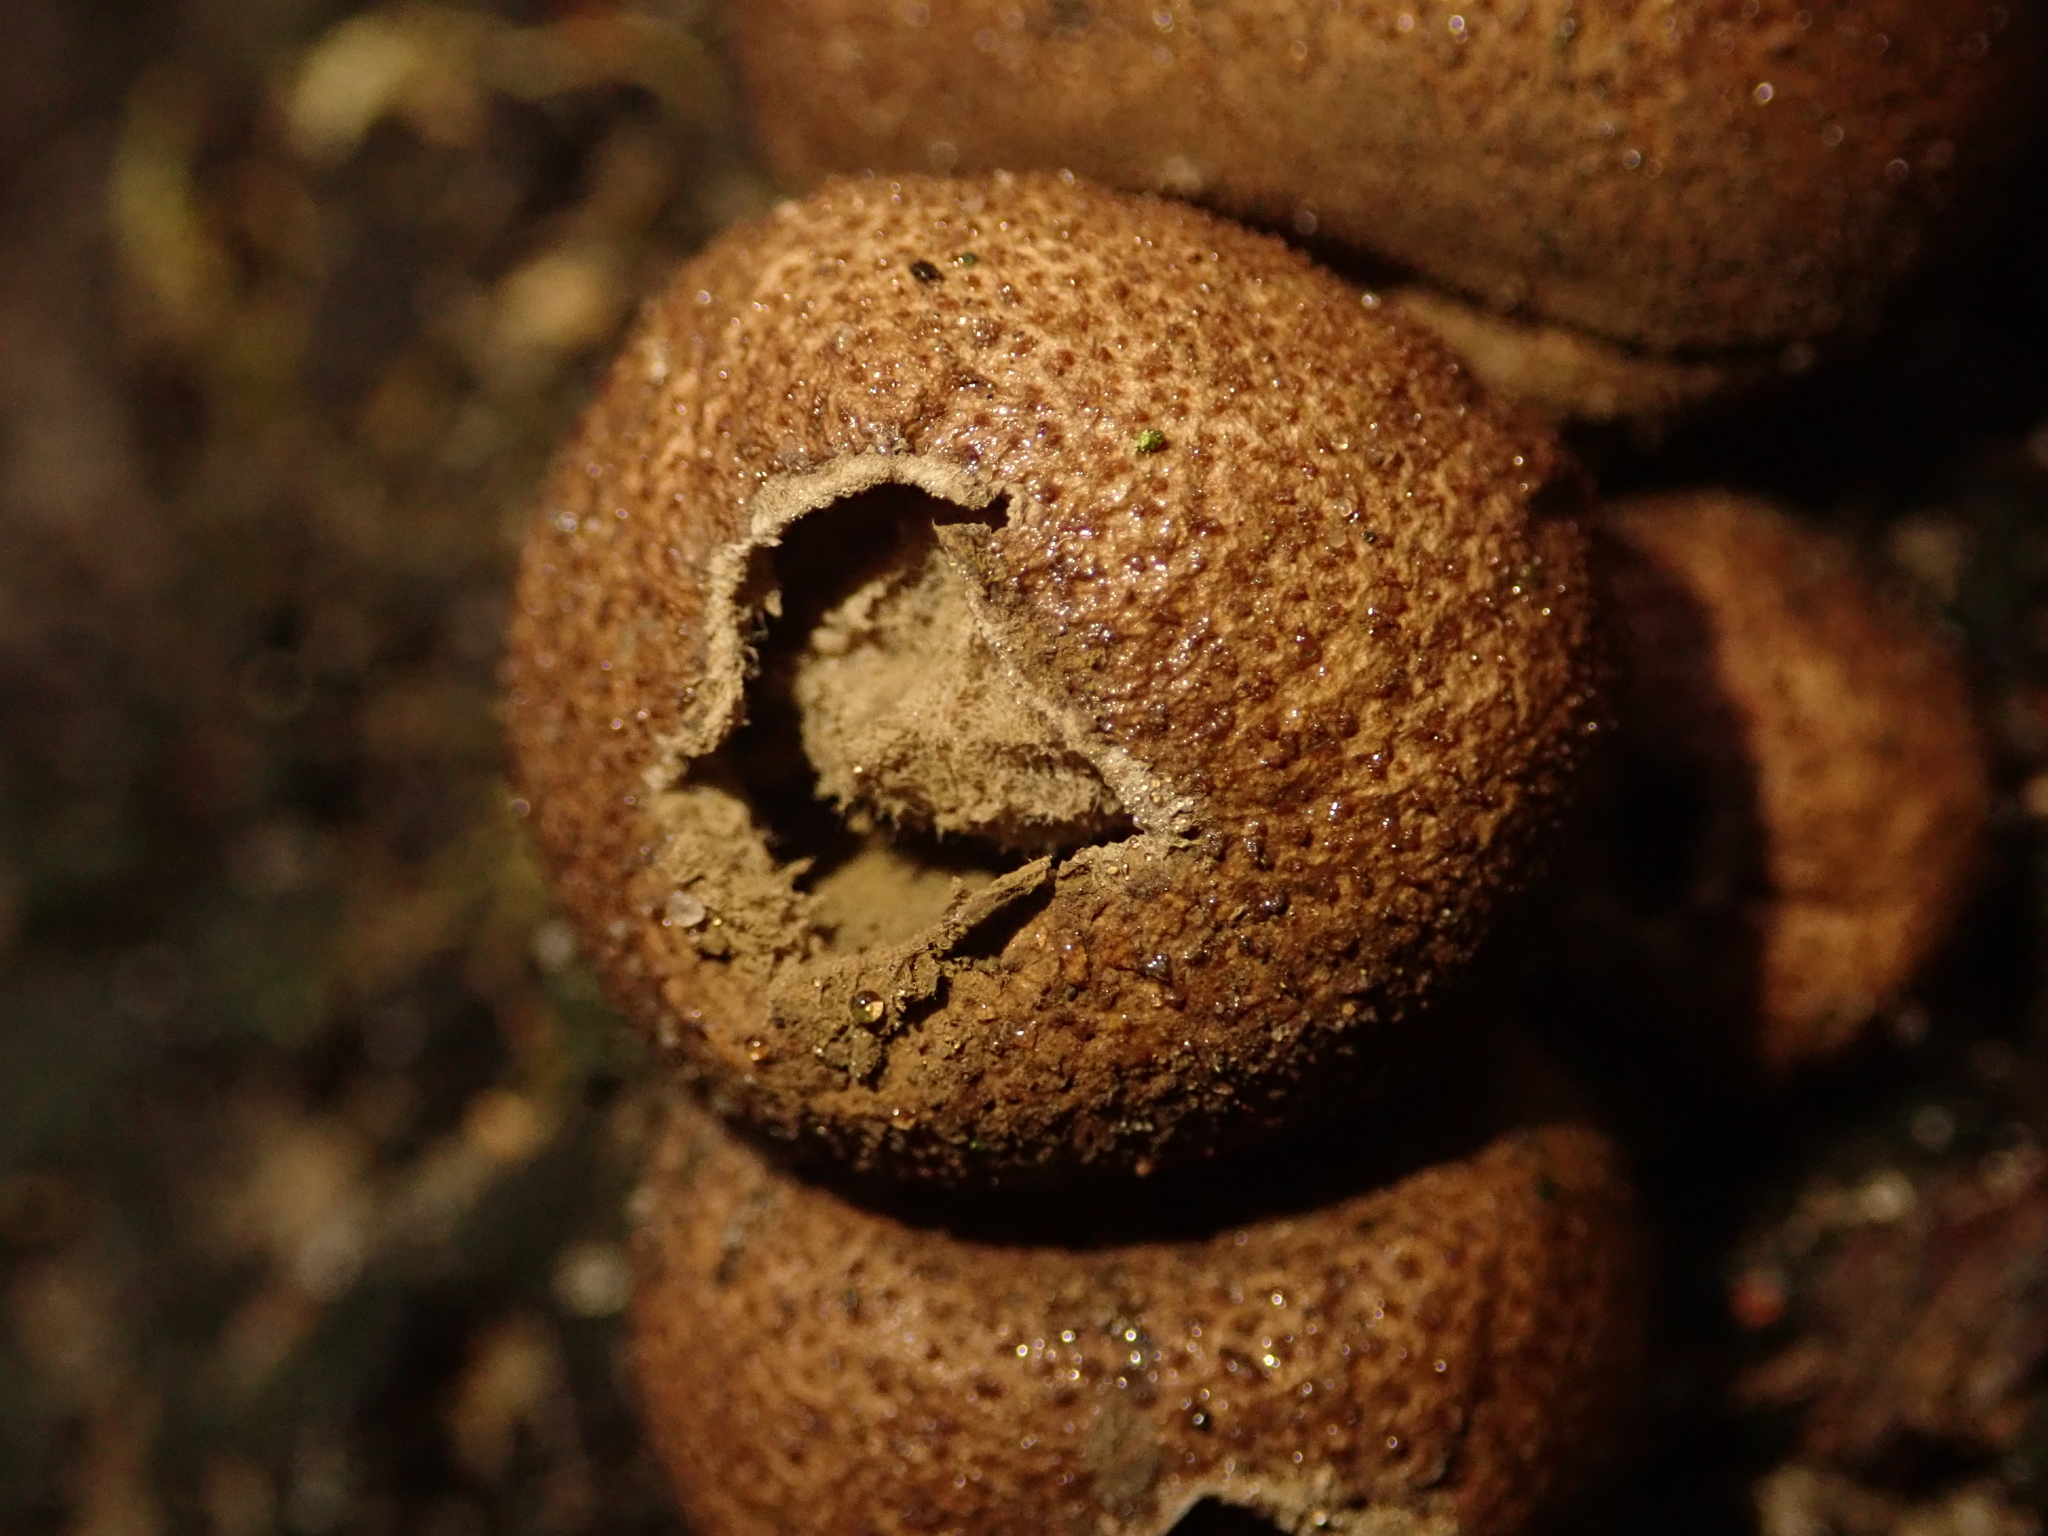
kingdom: Fungi
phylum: Basidiomycota
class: Agaricomycetes
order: Agaricales
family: Lycoperdaceae
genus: Apioperdon
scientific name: Apioperdon pyriforme
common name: Pear-shaped puffball
